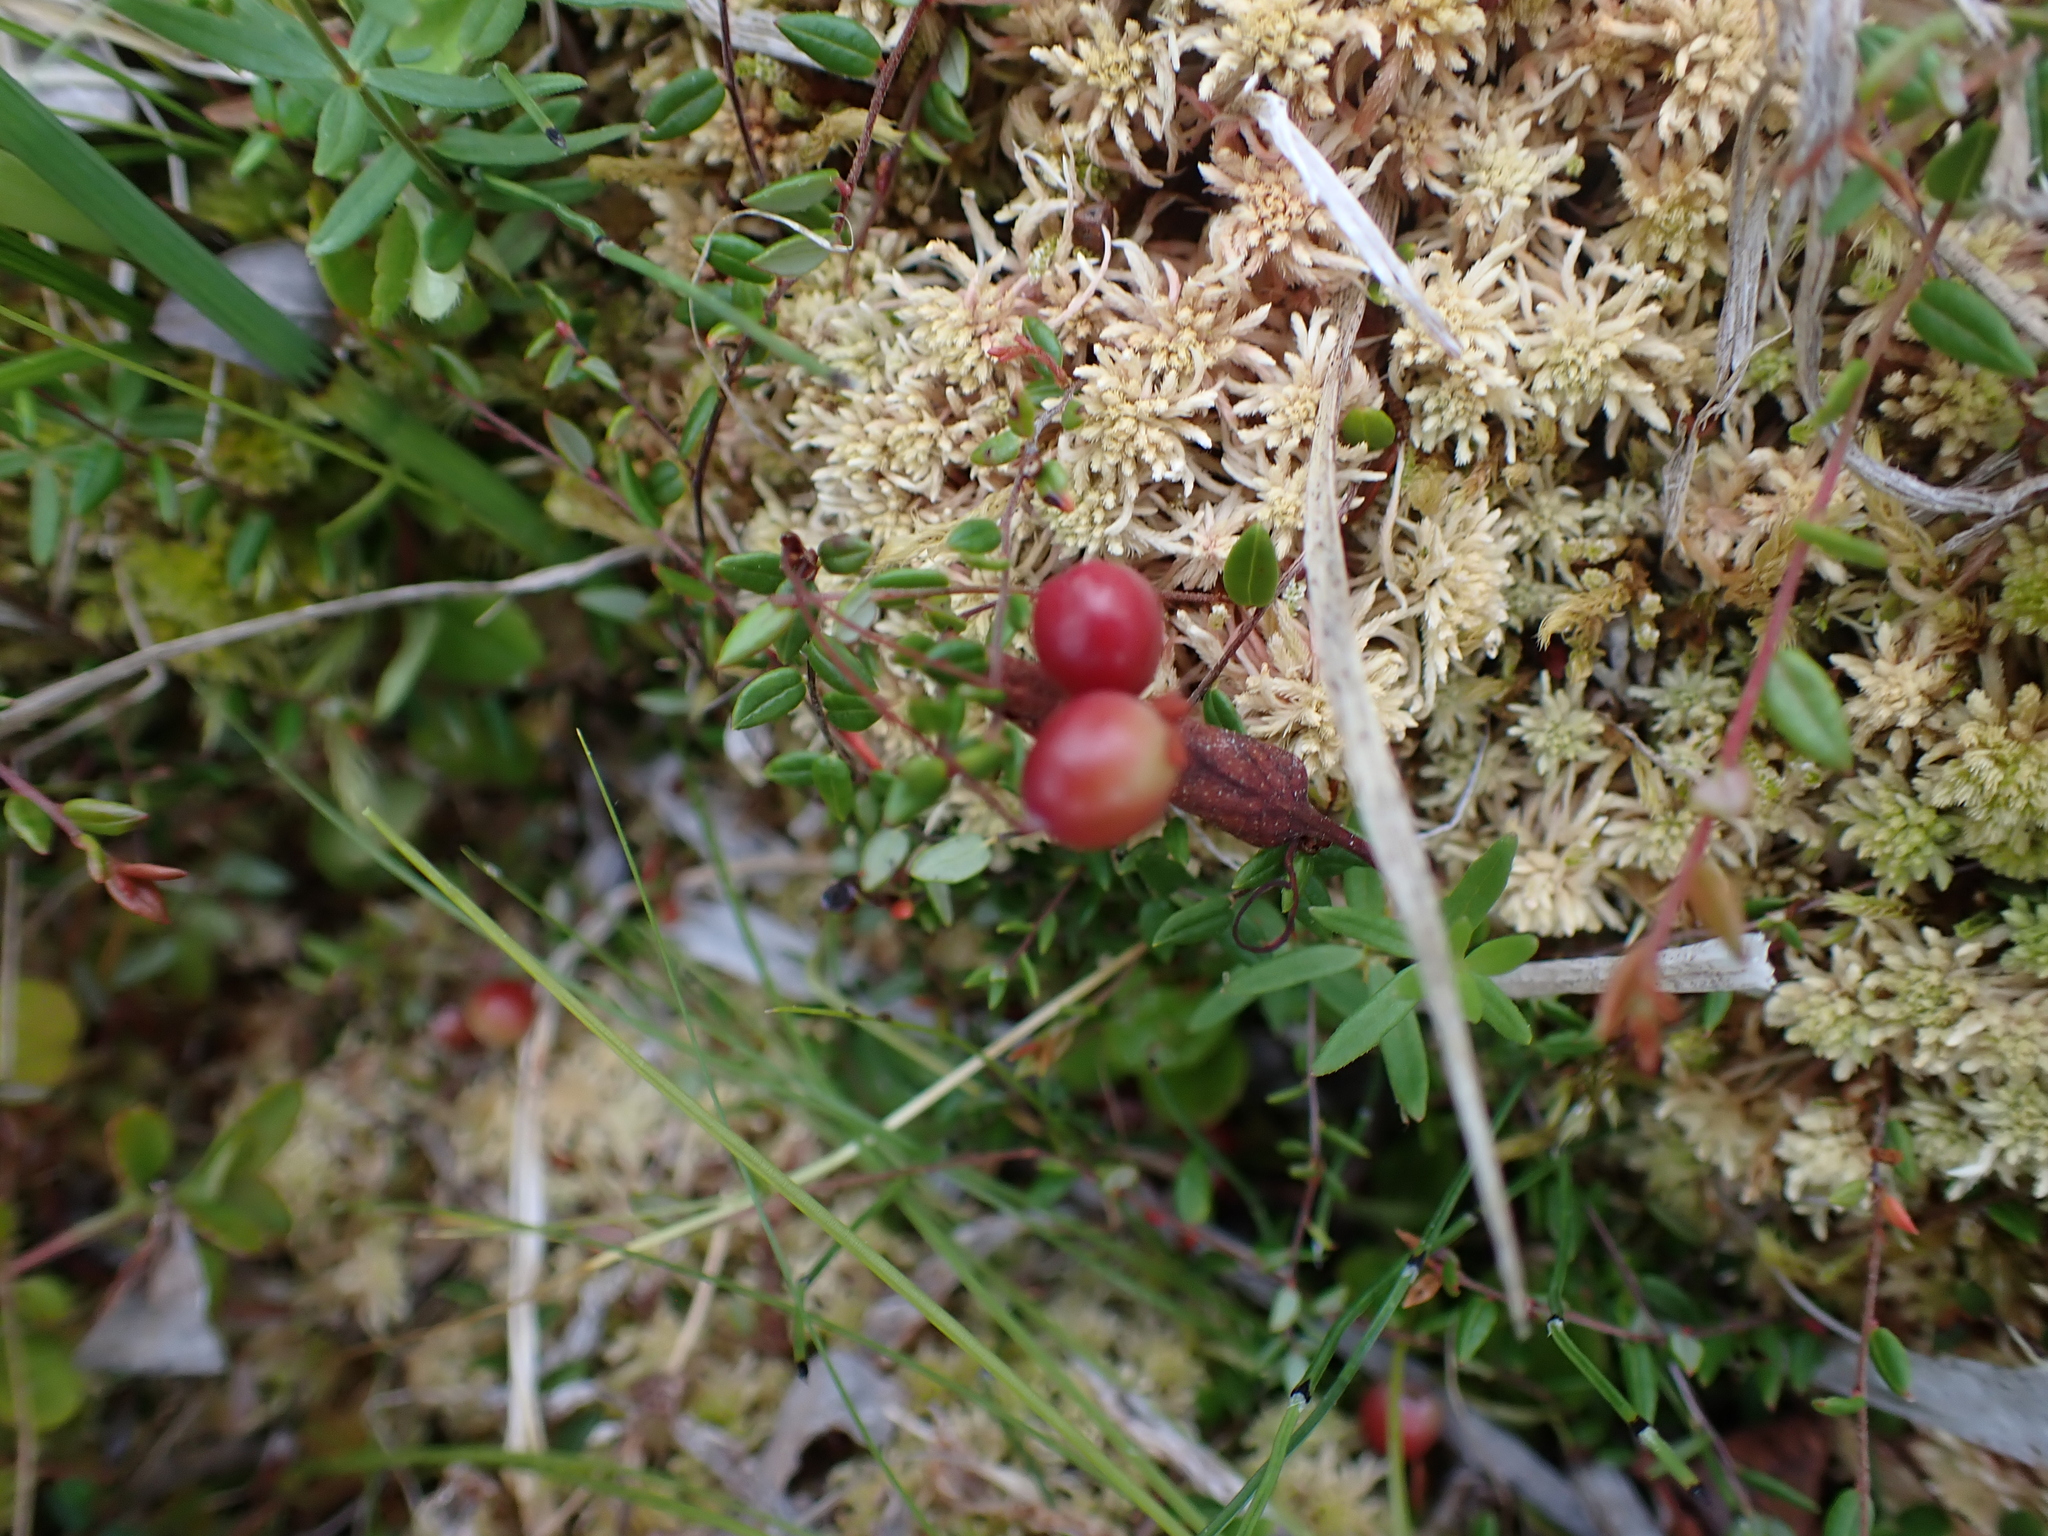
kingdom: Plantae
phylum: Tracheophyta
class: Magnoliopsida
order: Ericales
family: Ericaceae
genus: Vaccinium
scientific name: Vaccinium oxycoccos
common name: Cranberry
